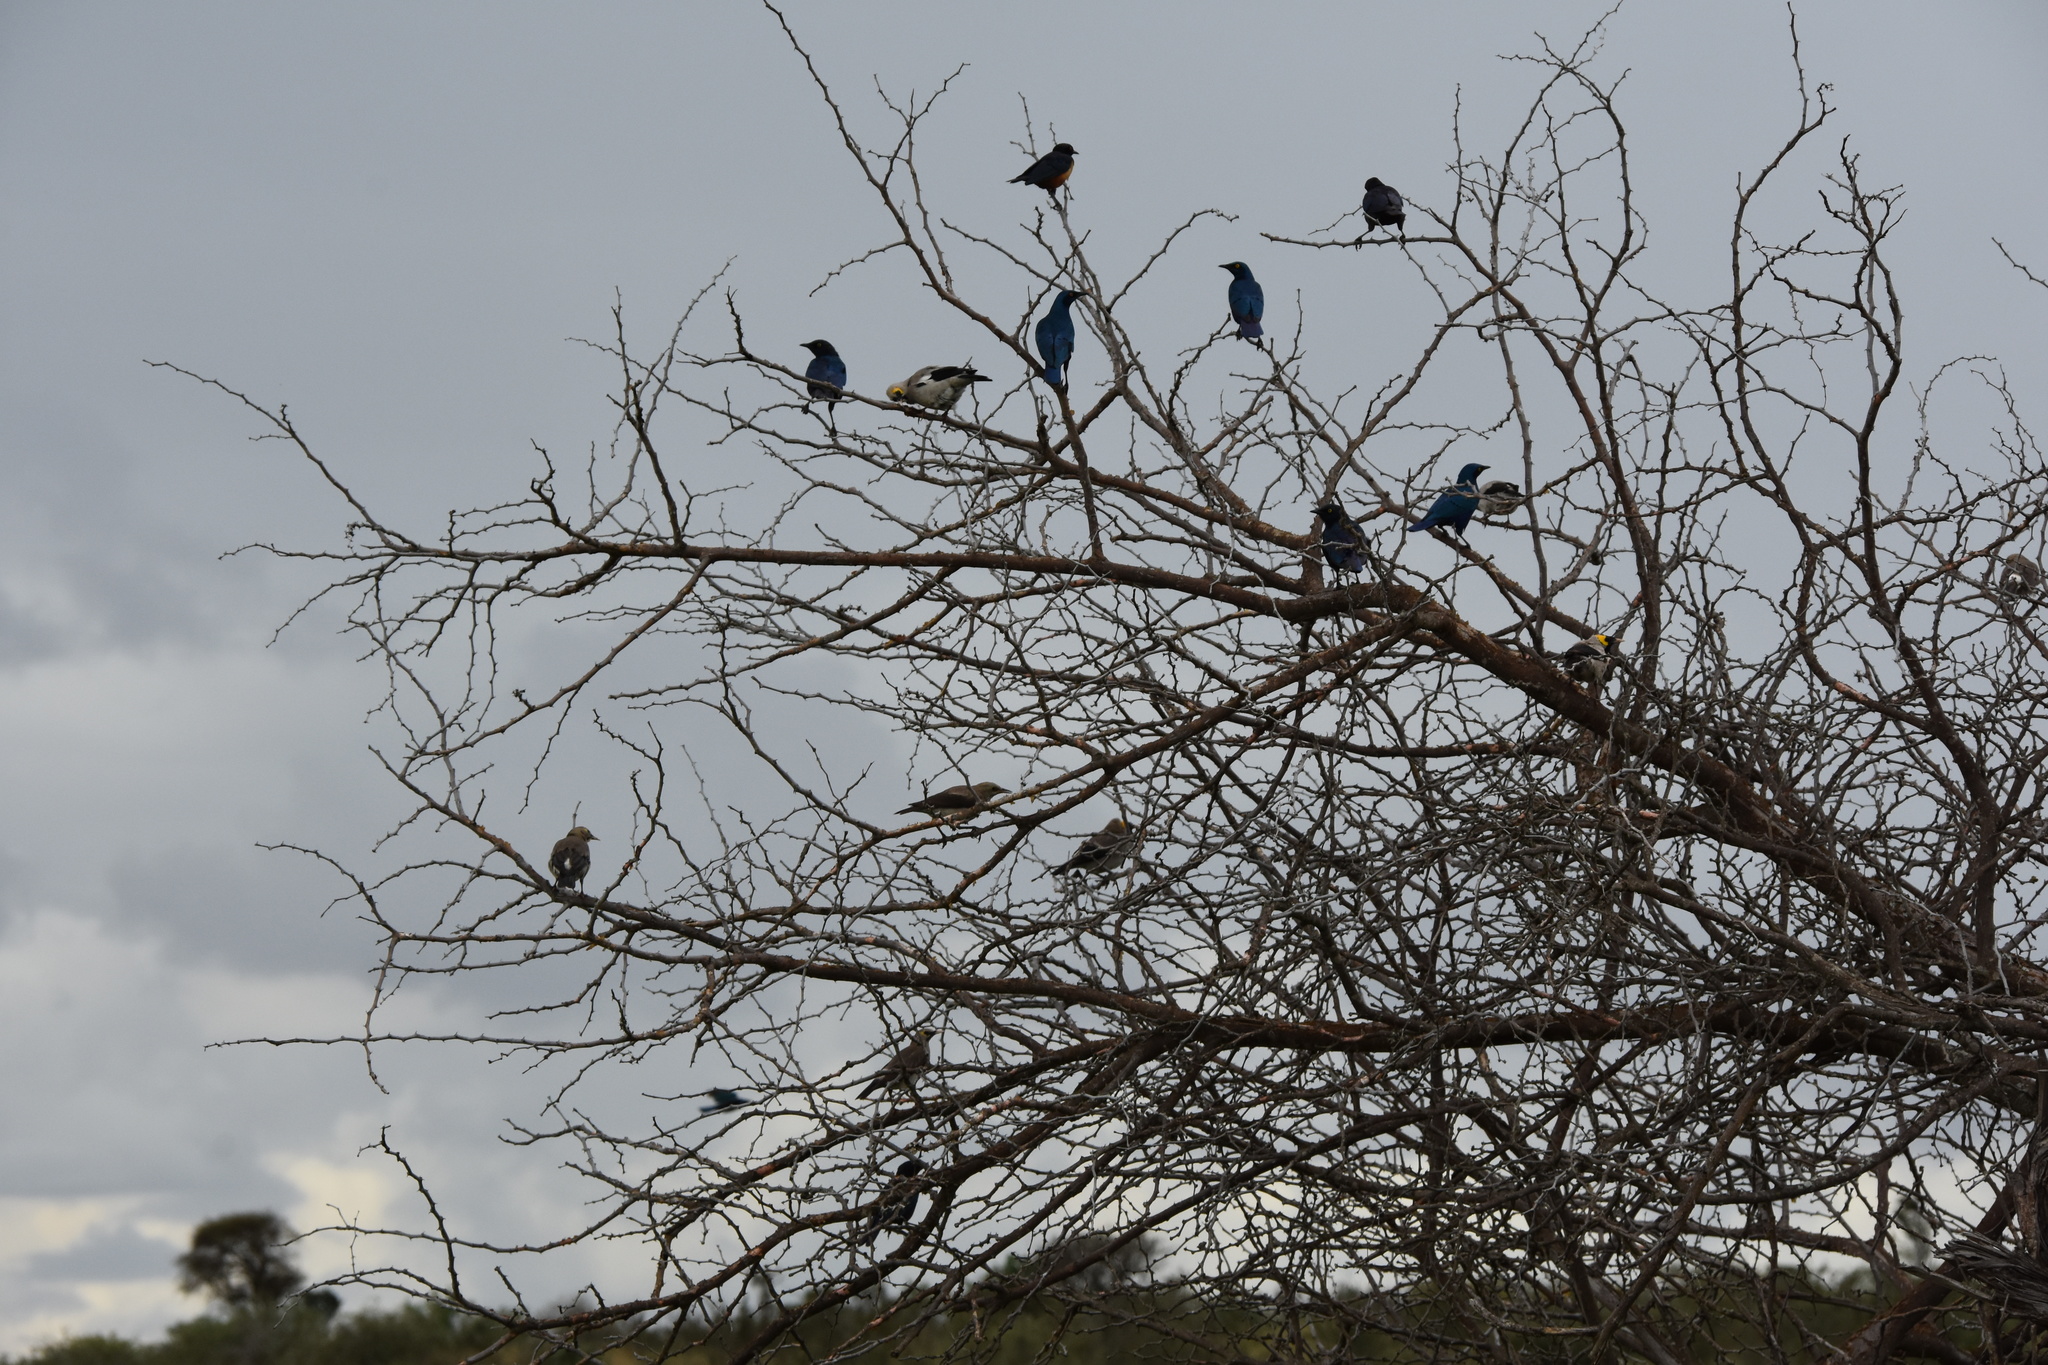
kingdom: Animalia
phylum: Chordata
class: Aves
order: Passeriformes
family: Sturnidae
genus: Lamprotornis
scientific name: Lamprotornis chalybaeus
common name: Greater blue-eared starling
